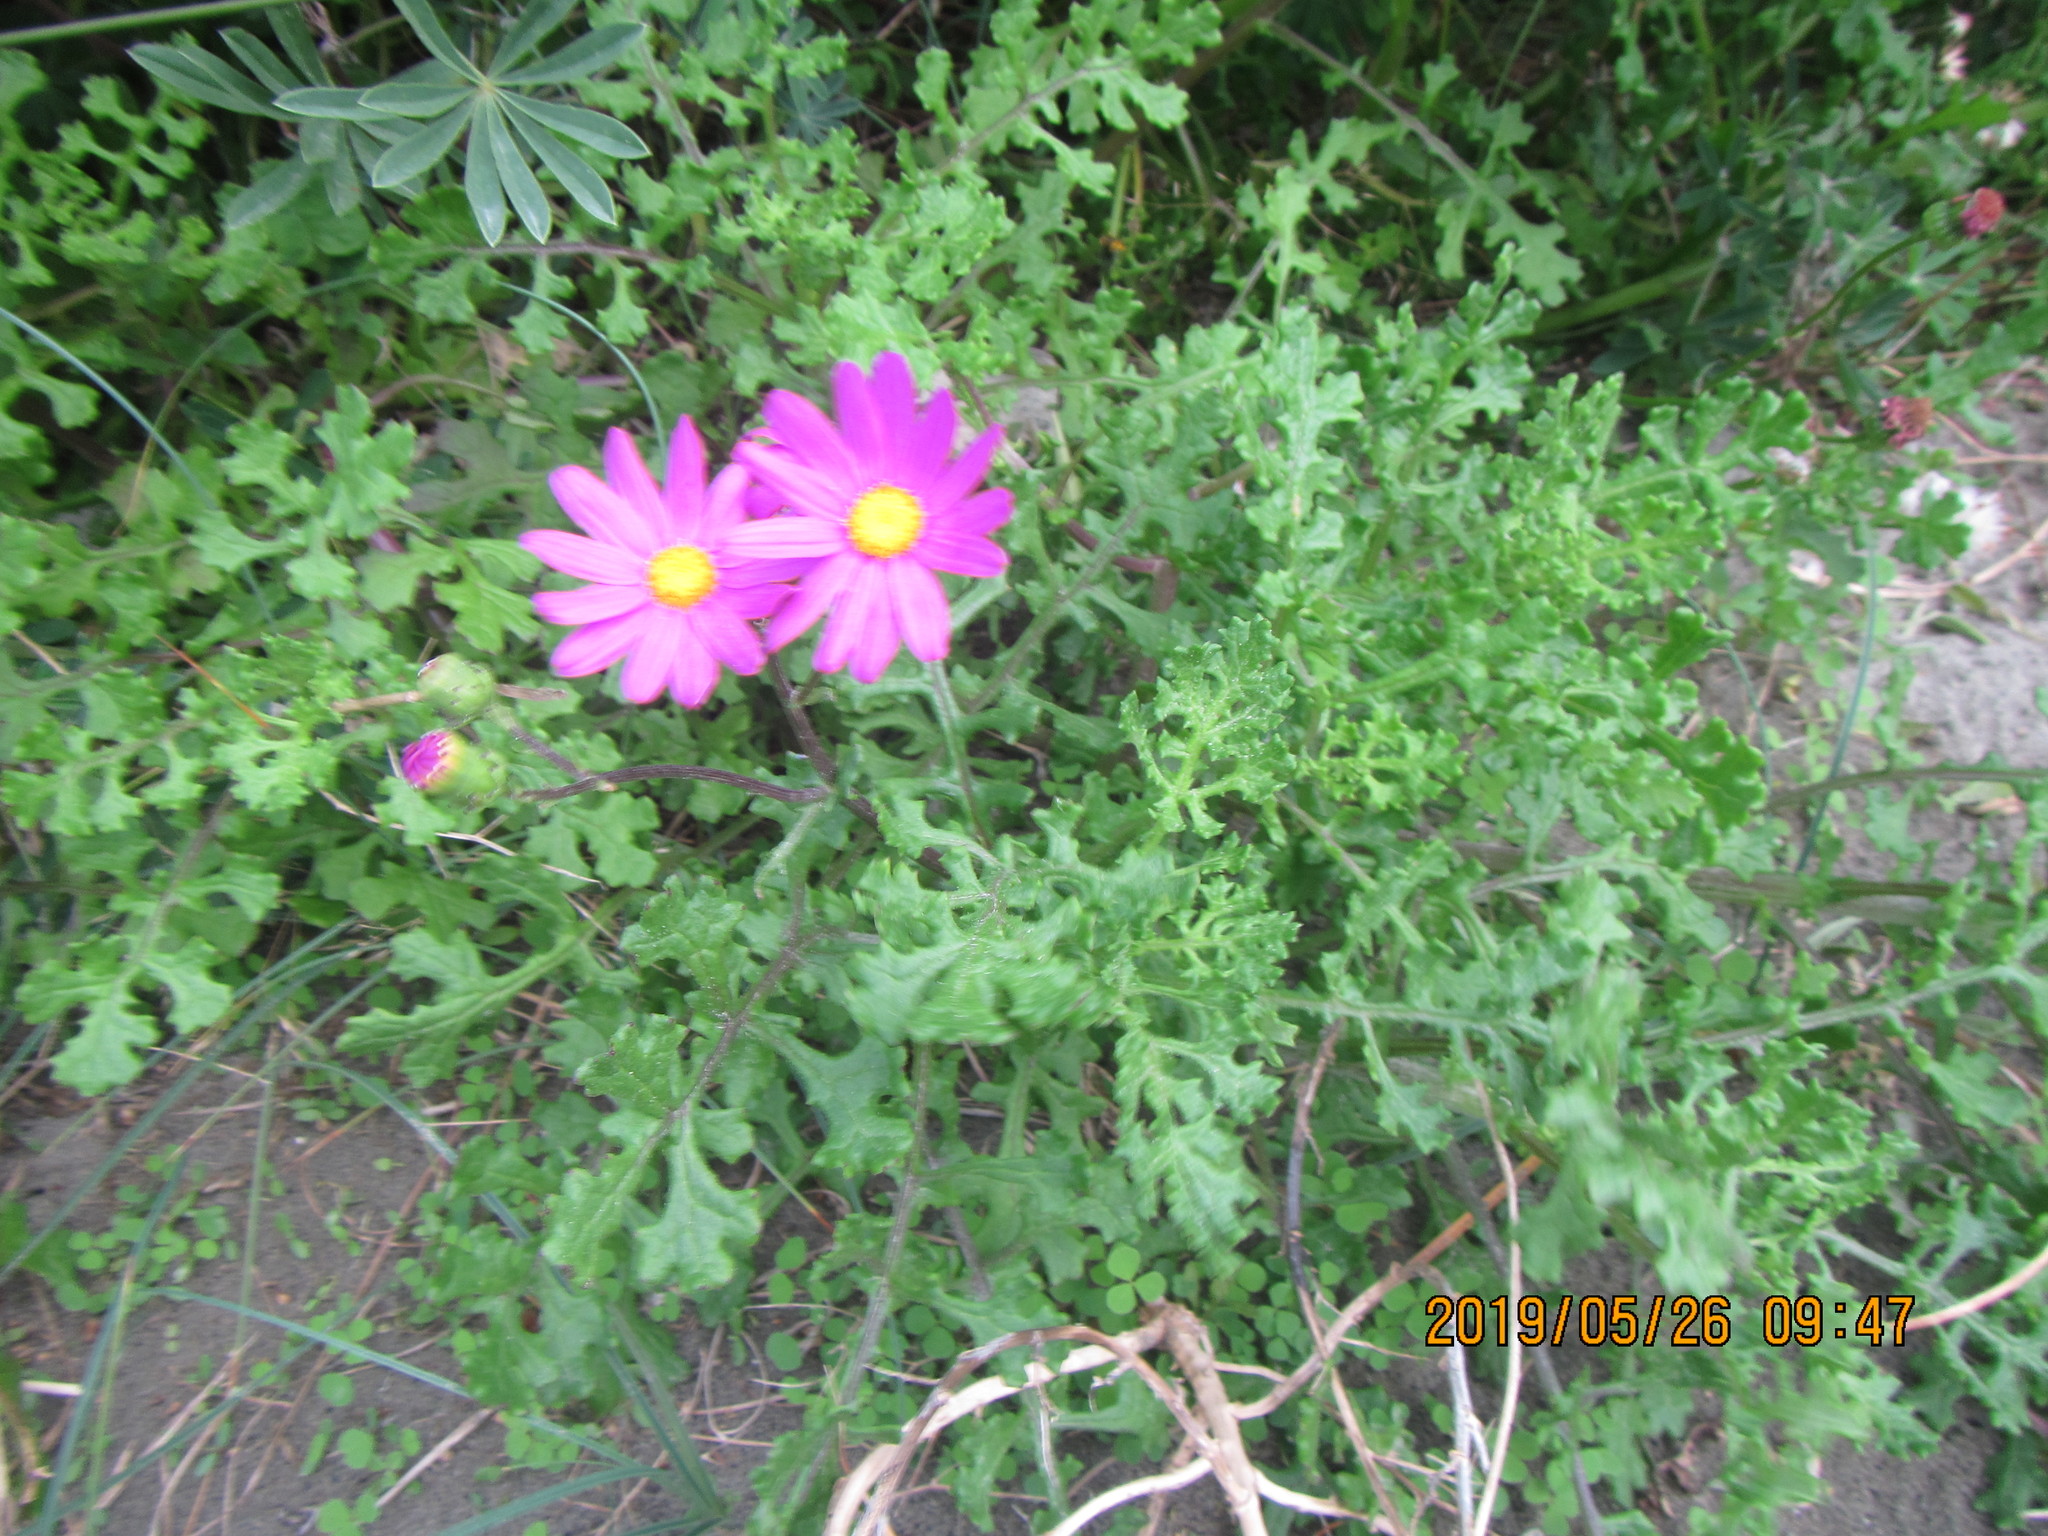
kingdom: Plantae
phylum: Tracheophyta
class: Magnoliopsida
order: Asterales
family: Asteraceae
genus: Senecio
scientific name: Senecio elegans
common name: Purple groundsel
